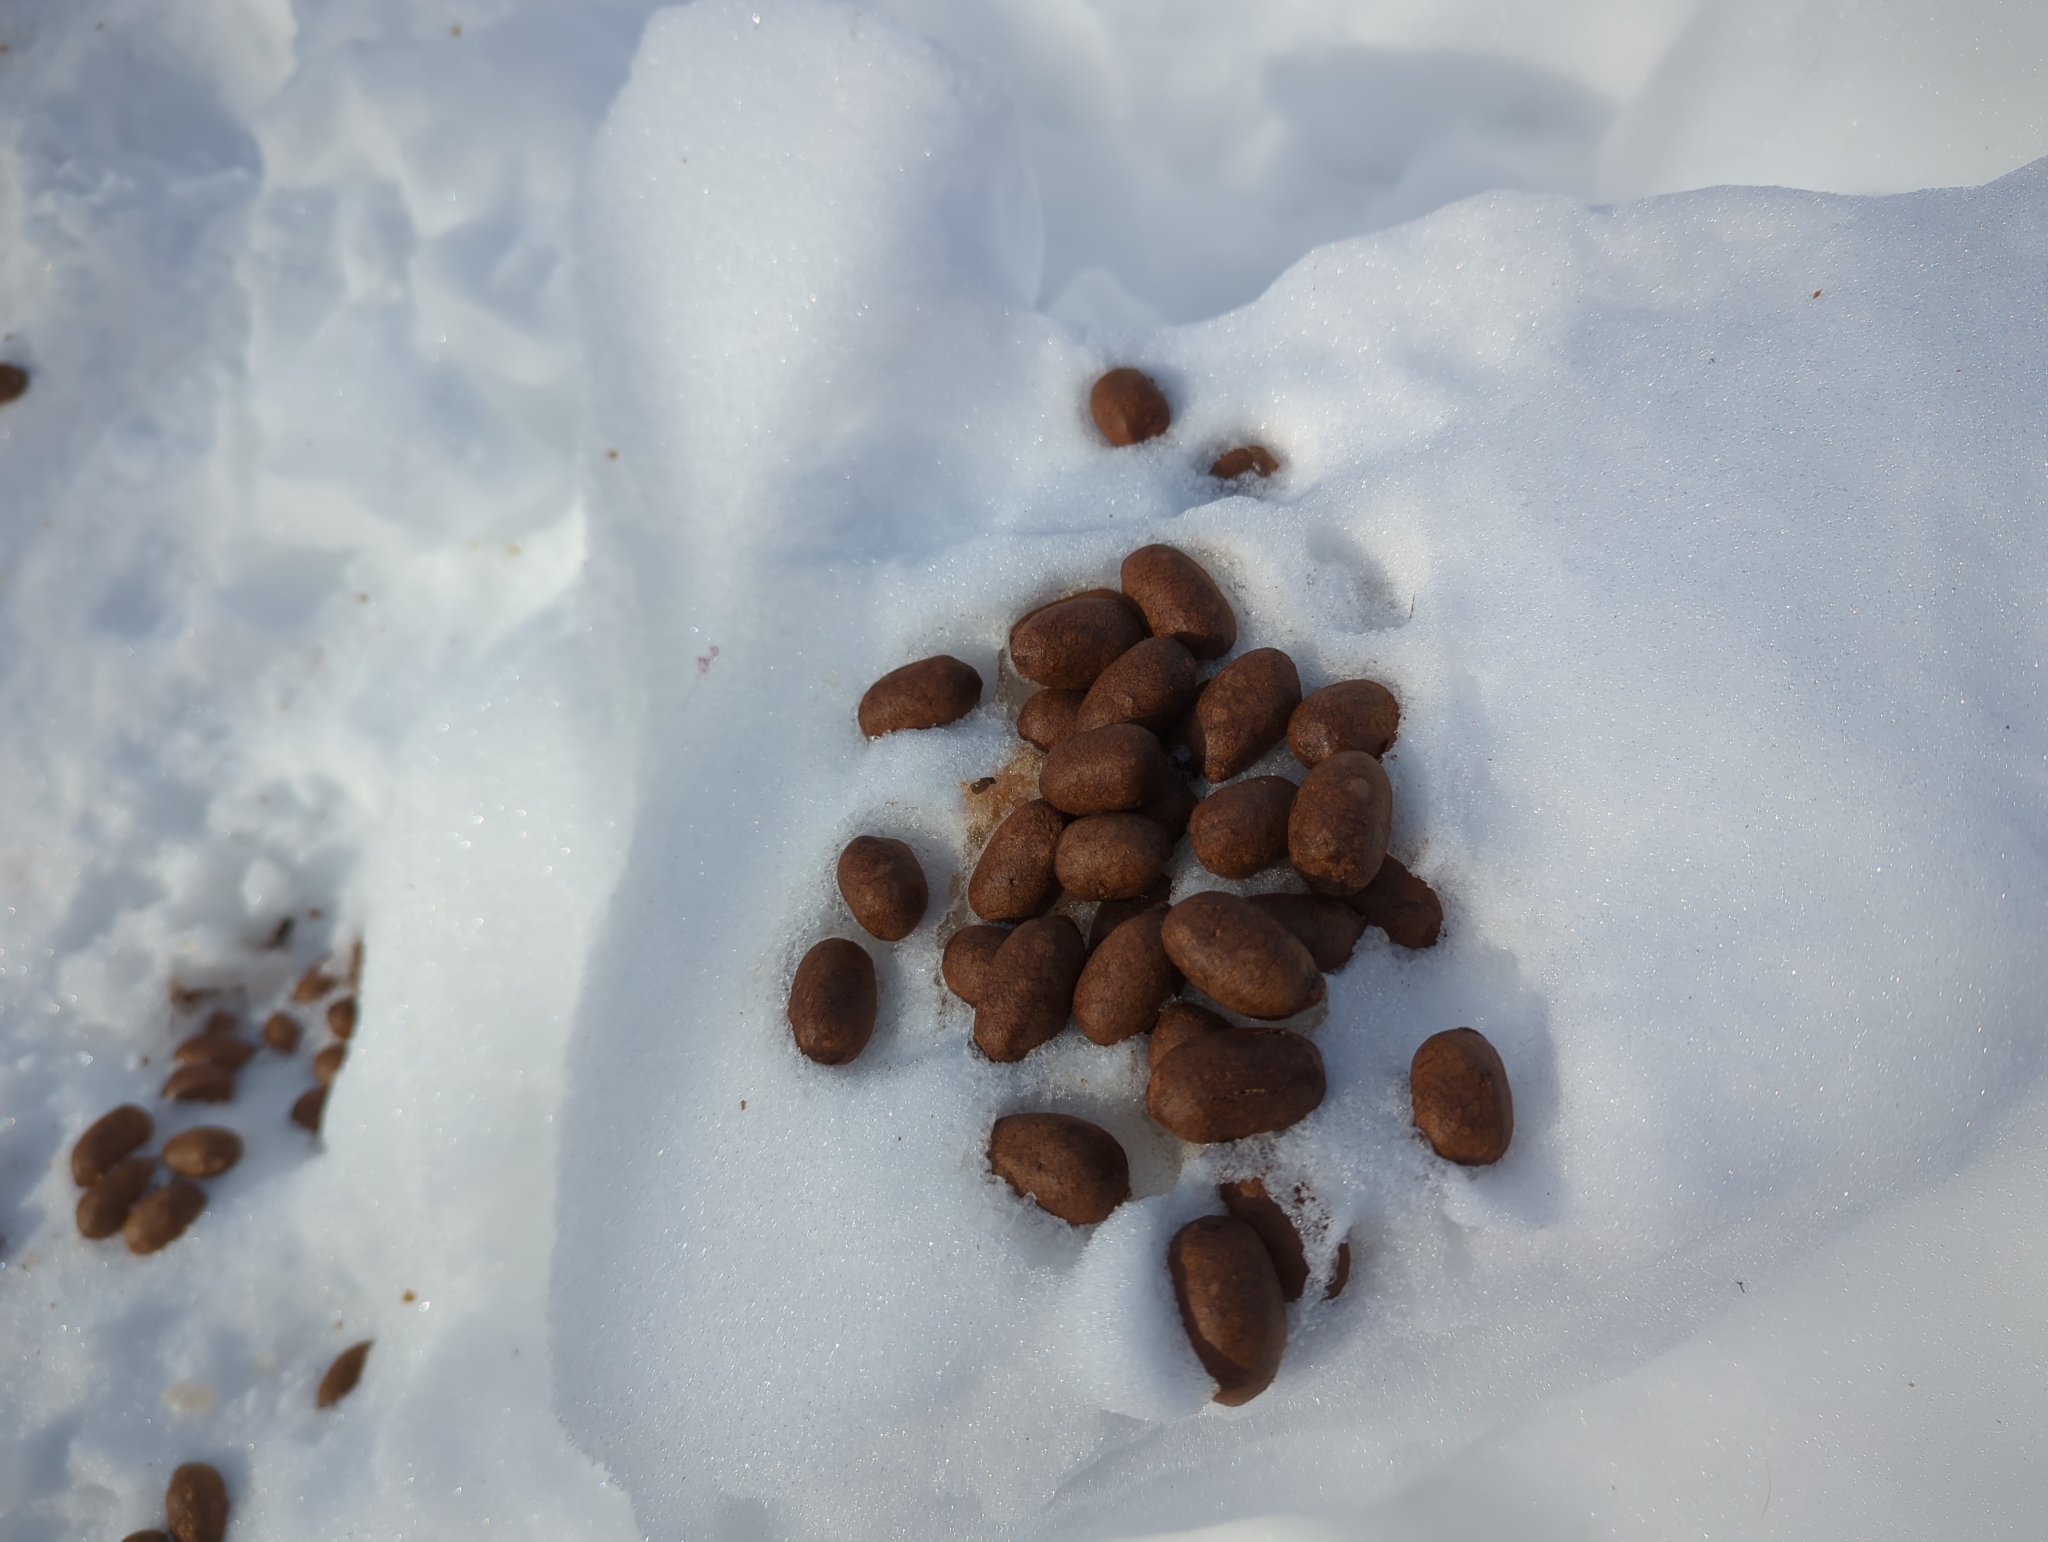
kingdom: Animalia
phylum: Chordata
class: Mammalia
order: Artiodactyla
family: Cervidae
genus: Alces
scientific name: Alces alces
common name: Moose
